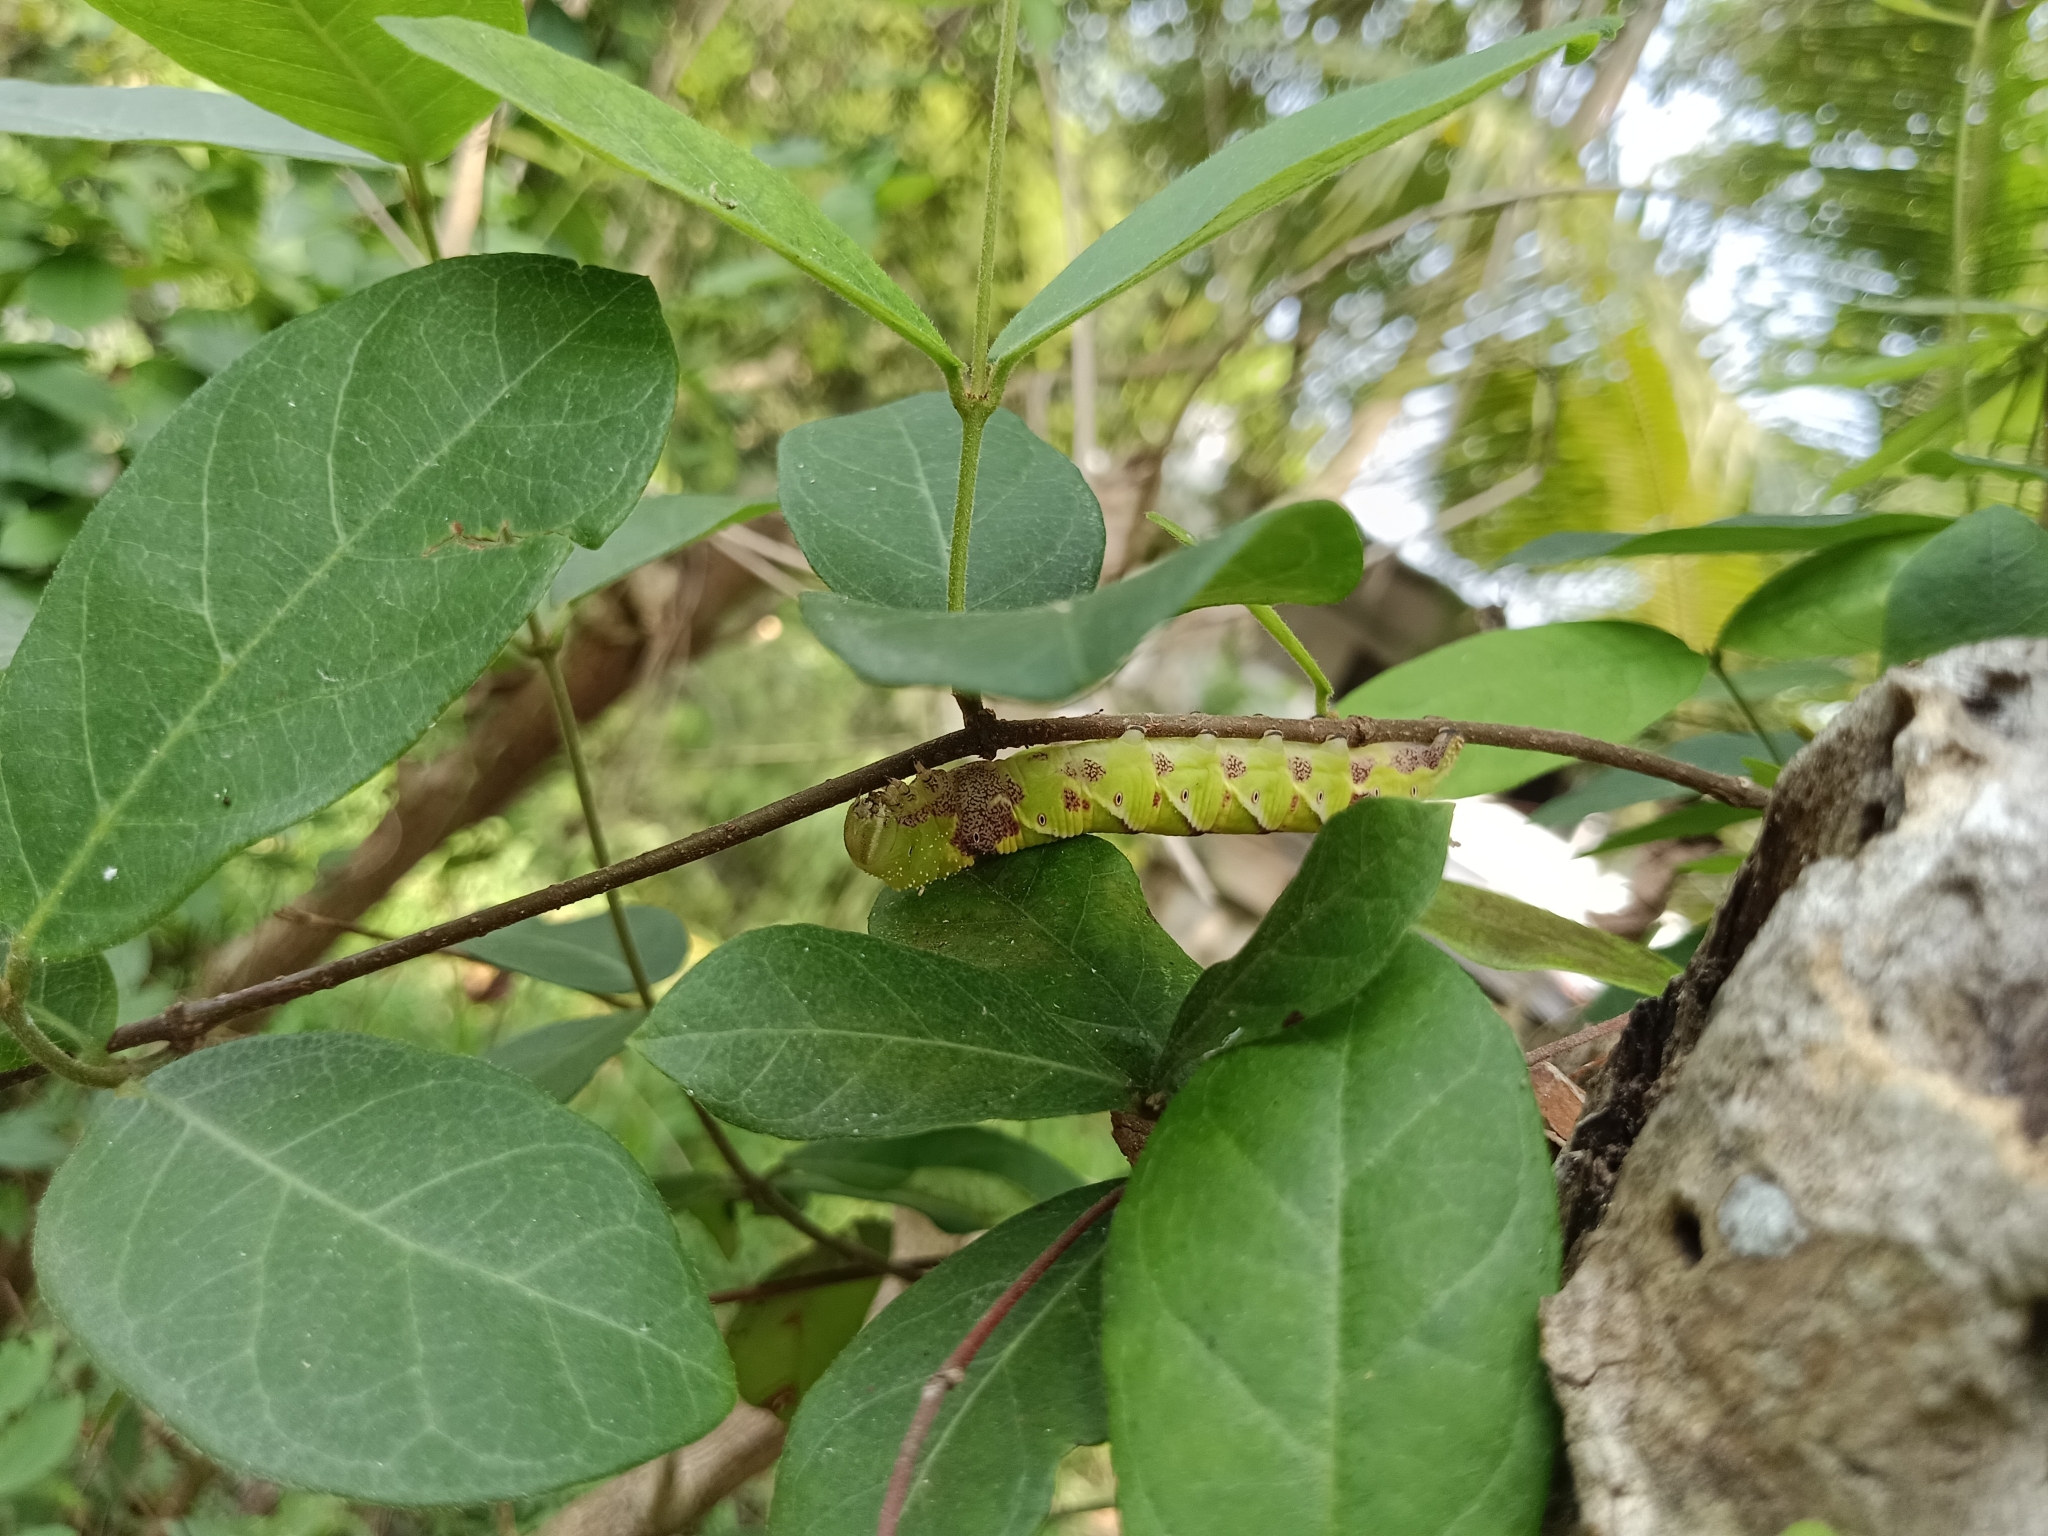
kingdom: Animalia
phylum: Arthropoda
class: Insecta
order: Lepidoptera
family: Sphingidae
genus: Psilogramma
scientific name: Psilogramma increta
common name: Gray hawk moth
